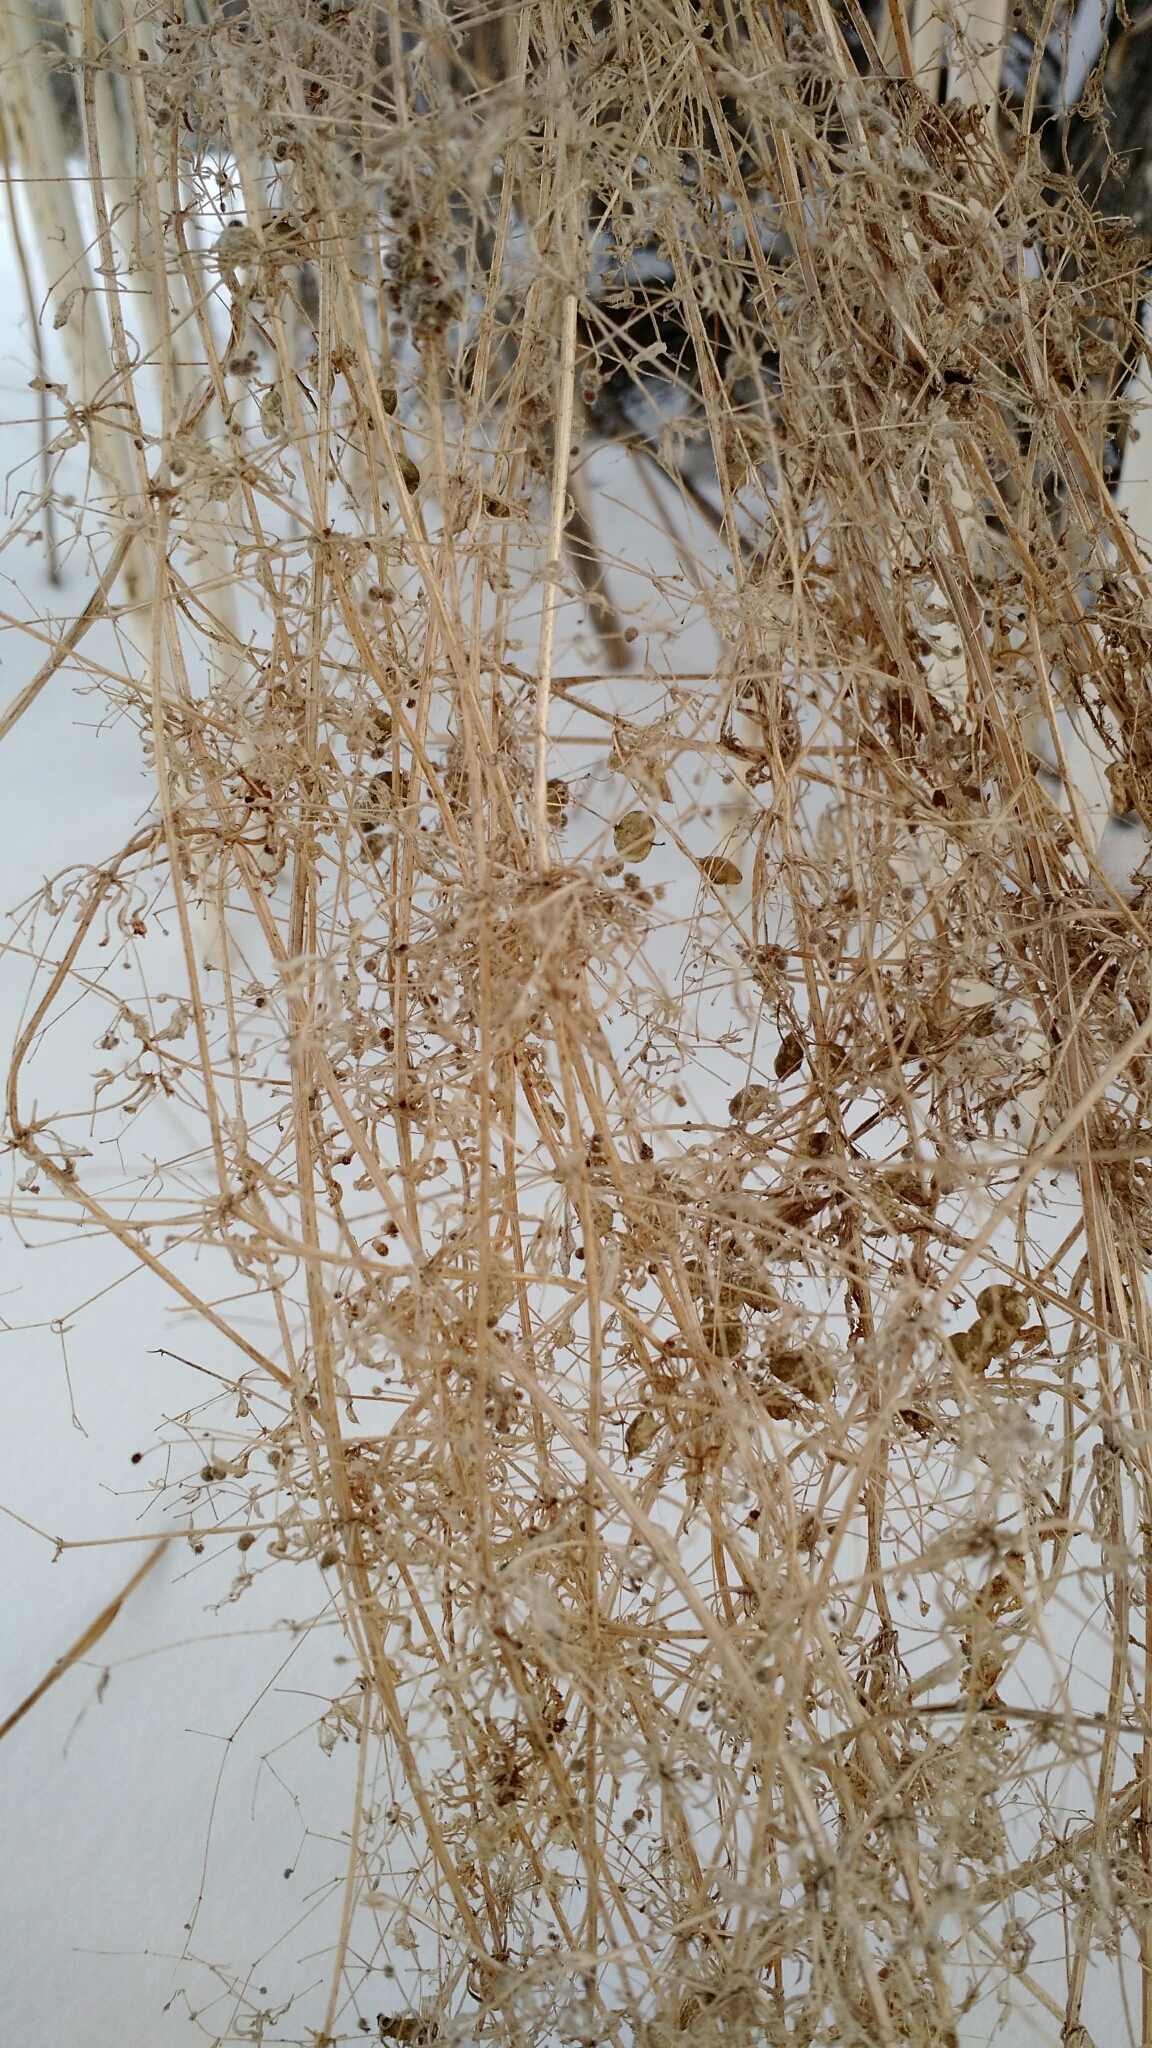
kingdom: Plantae
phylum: Tracheophyta
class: Magnoliopsida
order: Gentianales
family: Rubiaceae
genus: Galium
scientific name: Galium aparine
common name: Cleavers
